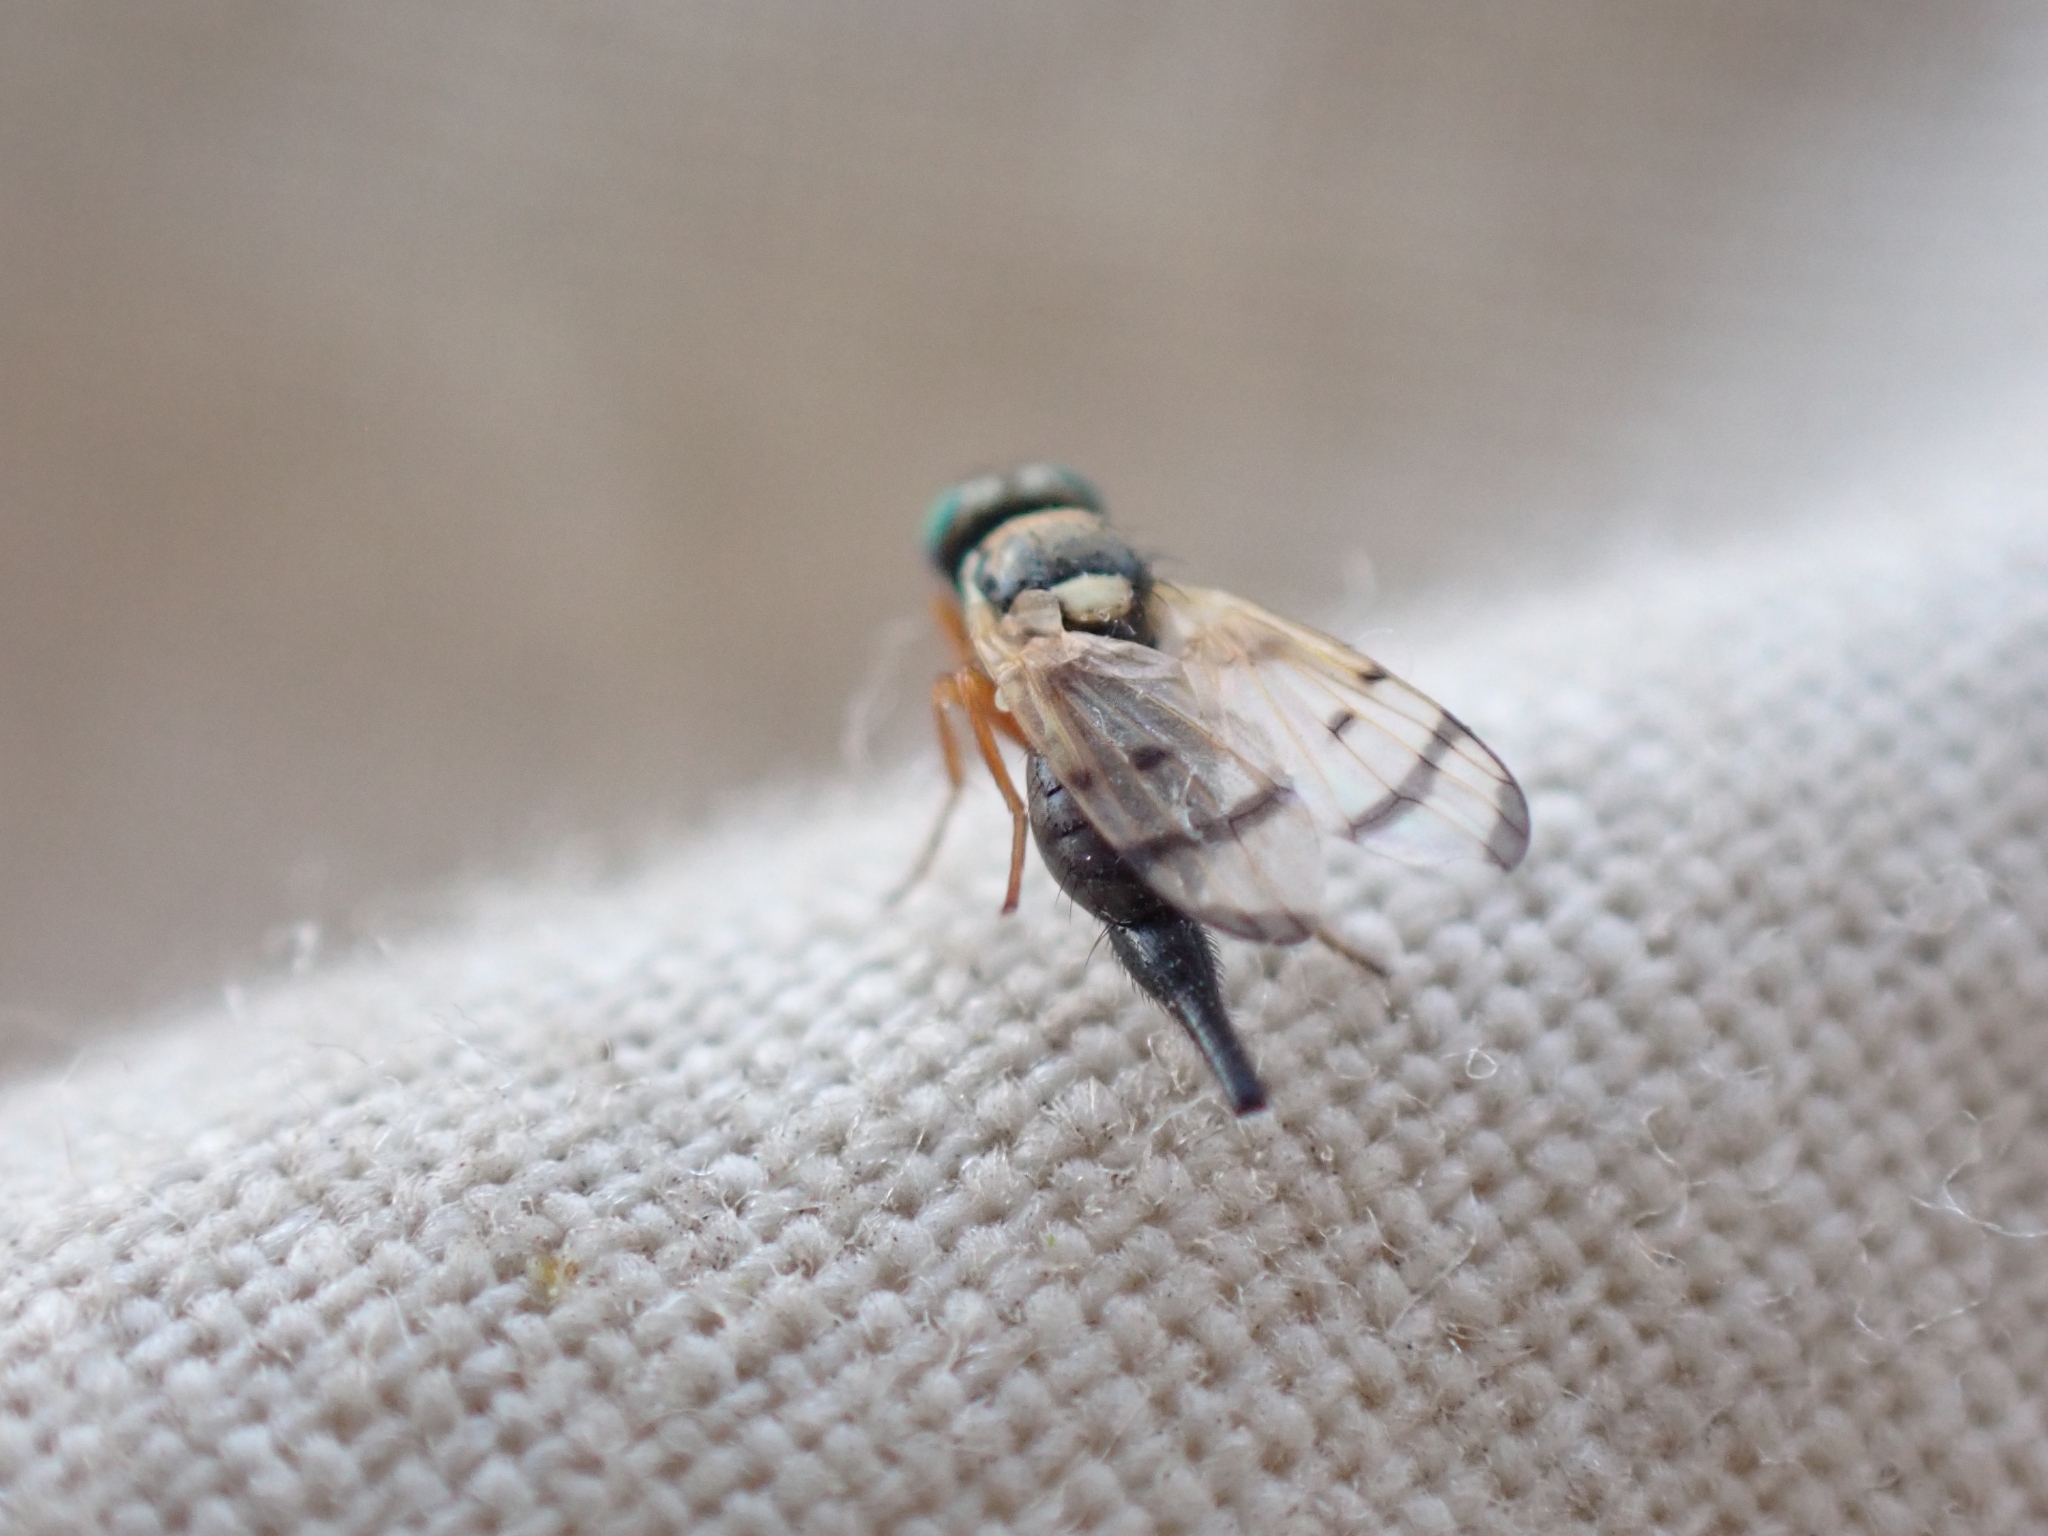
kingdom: Animalia
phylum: Arthropoda
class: Insecta
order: Diptera
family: Tephritidae
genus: Urophora
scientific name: Urophora affinis
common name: Fruit fly
